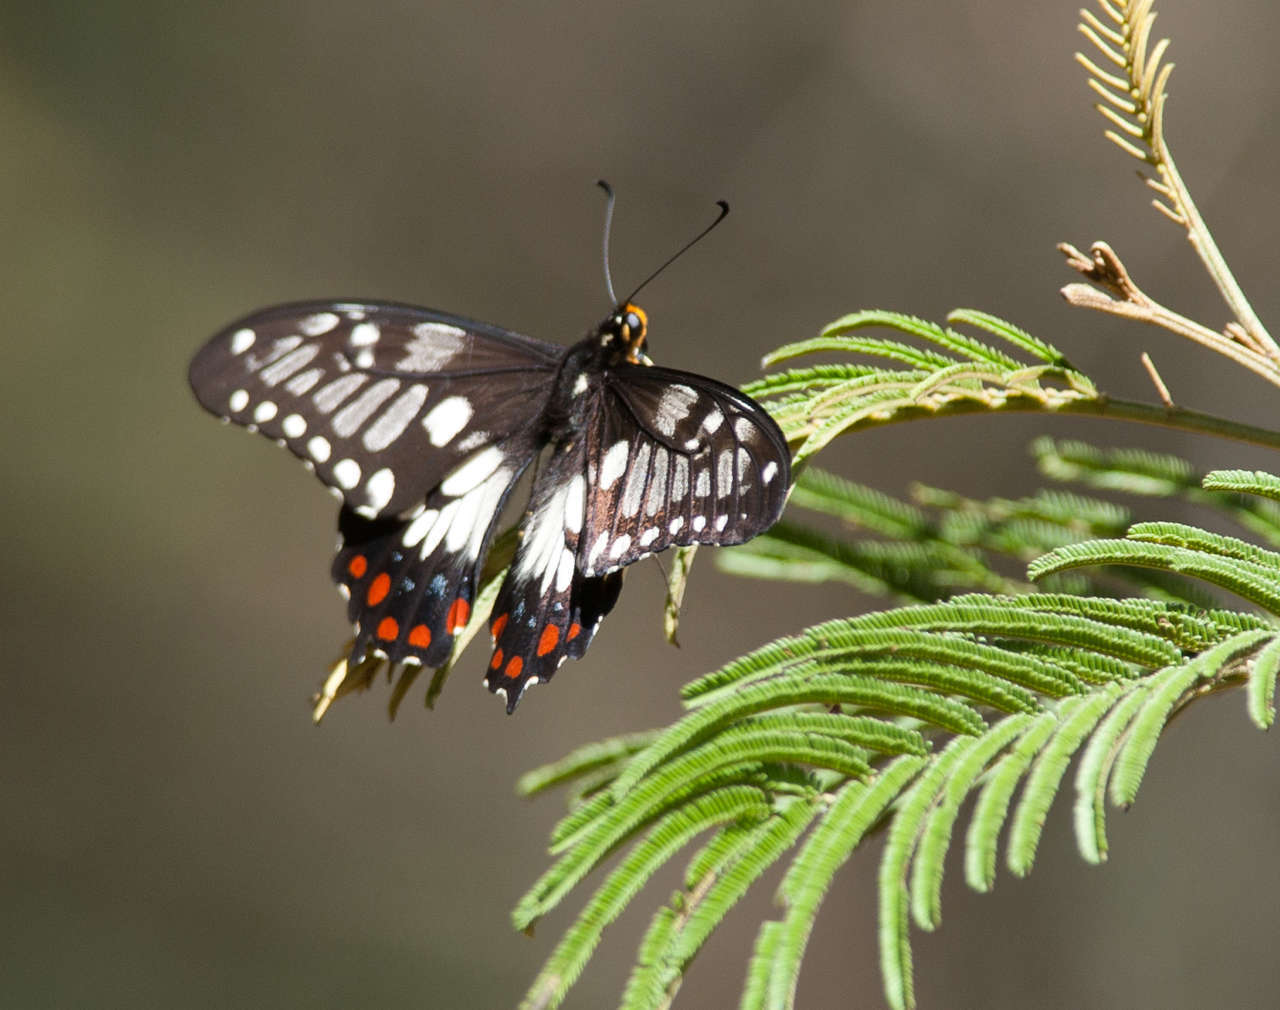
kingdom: Animalia
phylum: Arthropoda
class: Insecta
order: Lepidoptera
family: Papilionidae
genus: Papilio
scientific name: Papilio anactus
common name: Dingy swallowtail
